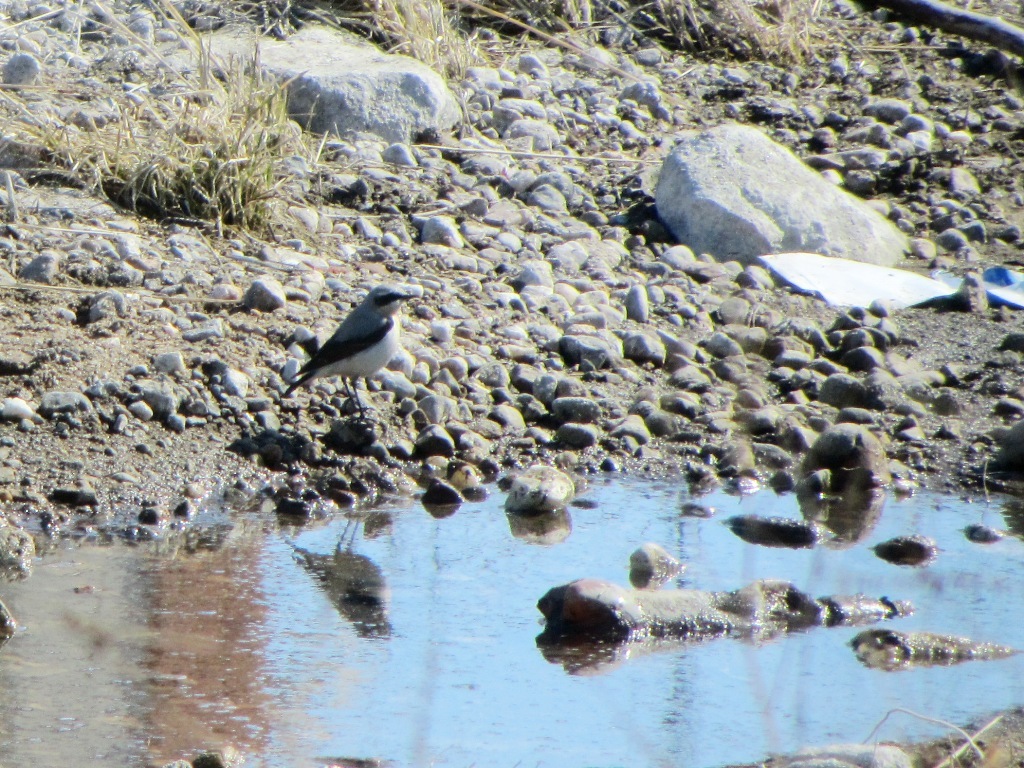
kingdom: Animalia
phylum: Chordata
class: Aves
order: Passeriformes
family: Muscicapidae
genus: Oenanthe
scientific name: Oenanthe oenanthe
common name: Northern wheatear
